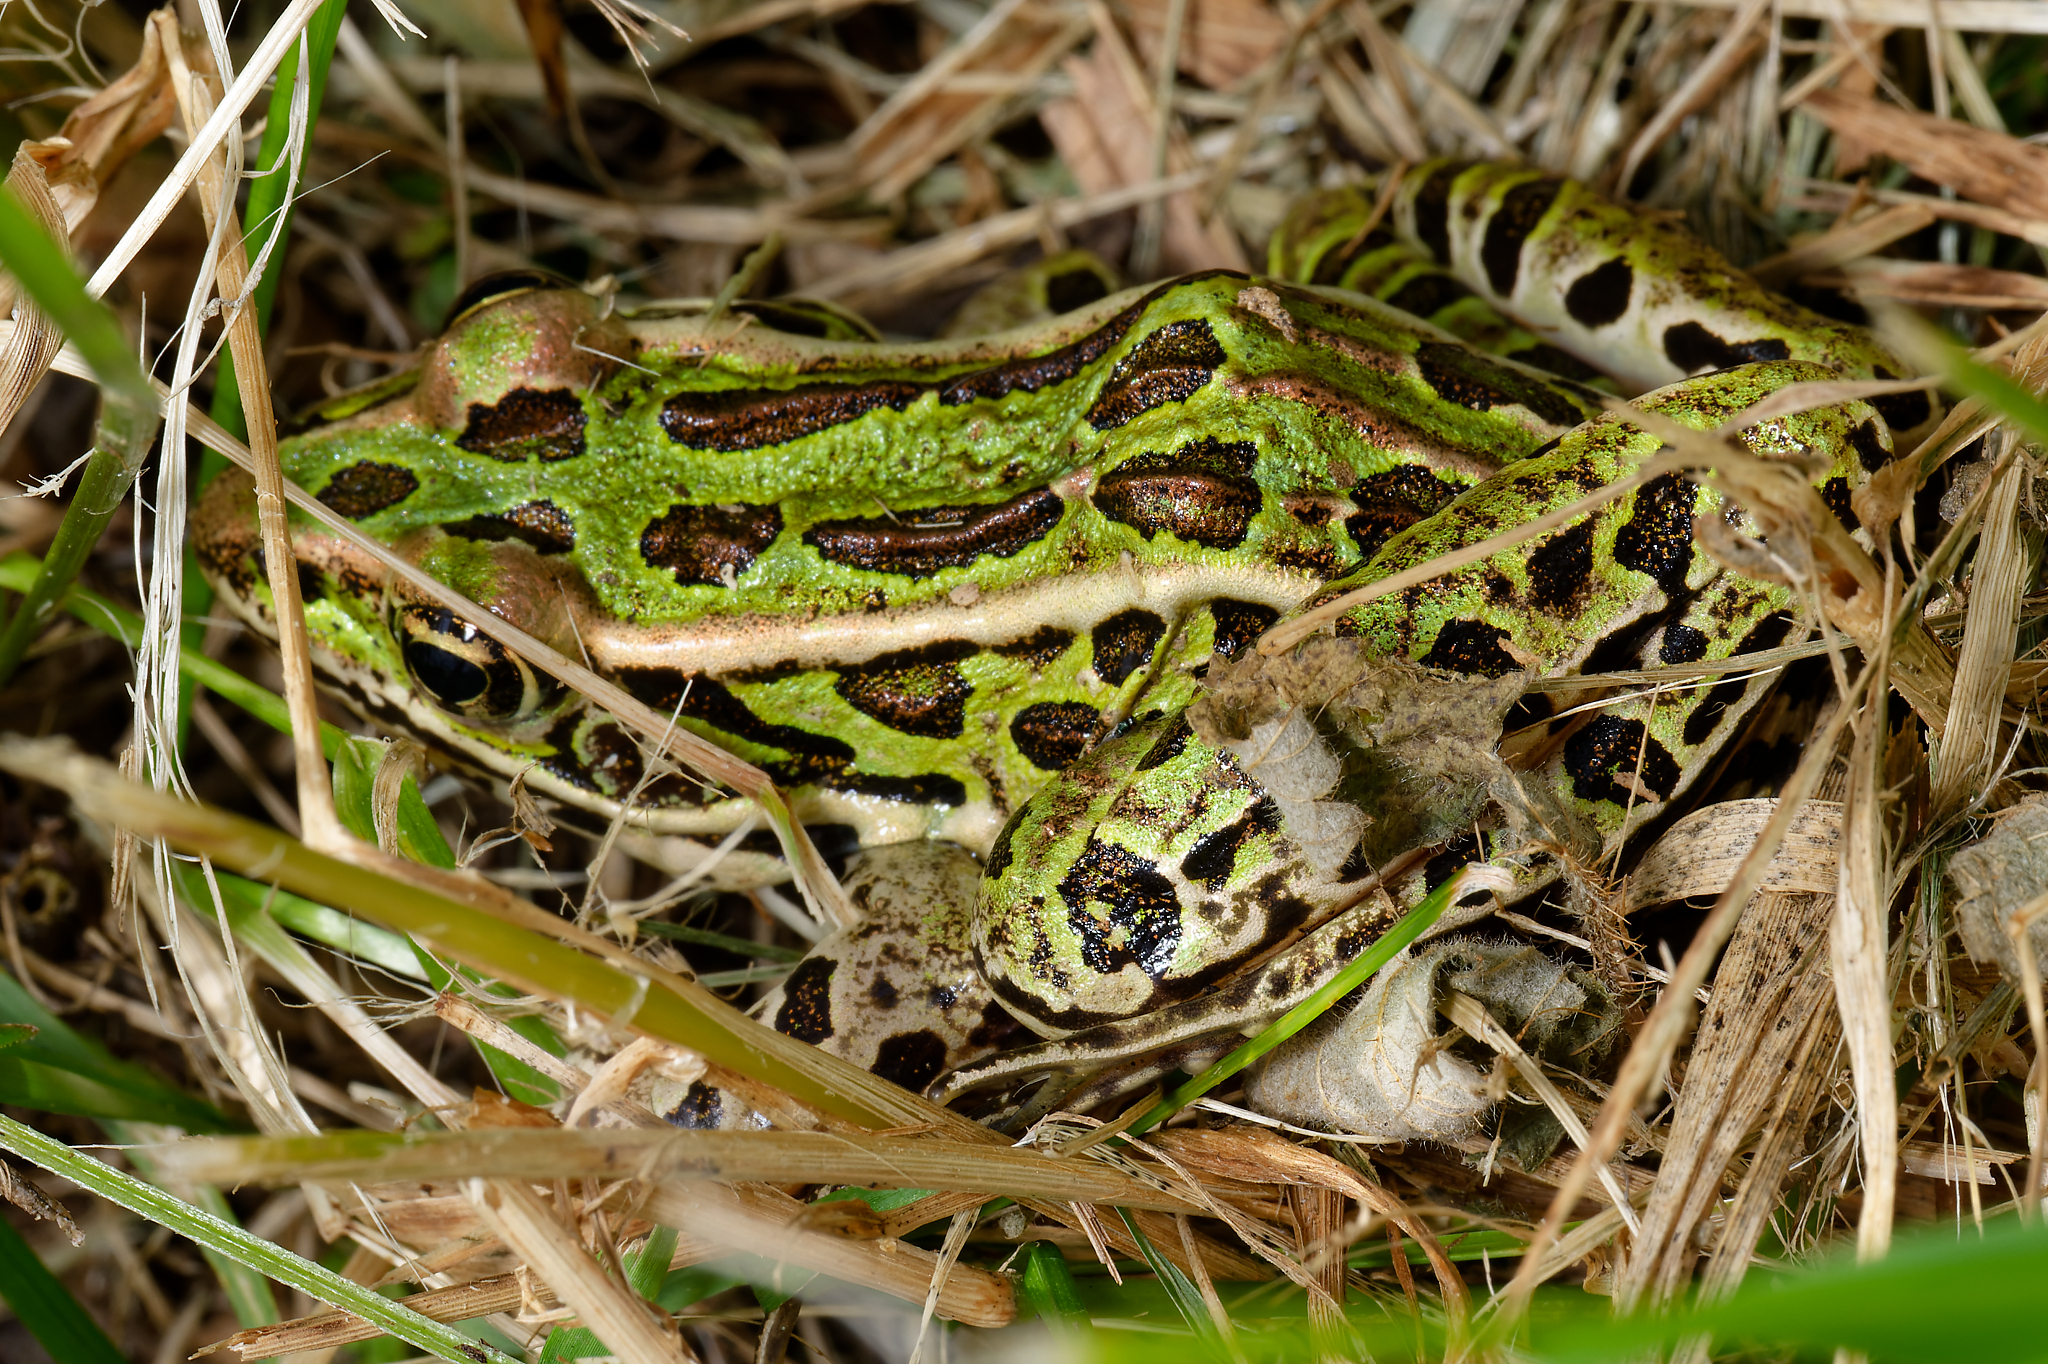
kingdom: Animalia
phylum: Chordata
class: Amphibia
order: Anura
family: Ranidae
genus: Lithobates
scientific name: Lithobates pipiens
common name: Northern leopard frog
